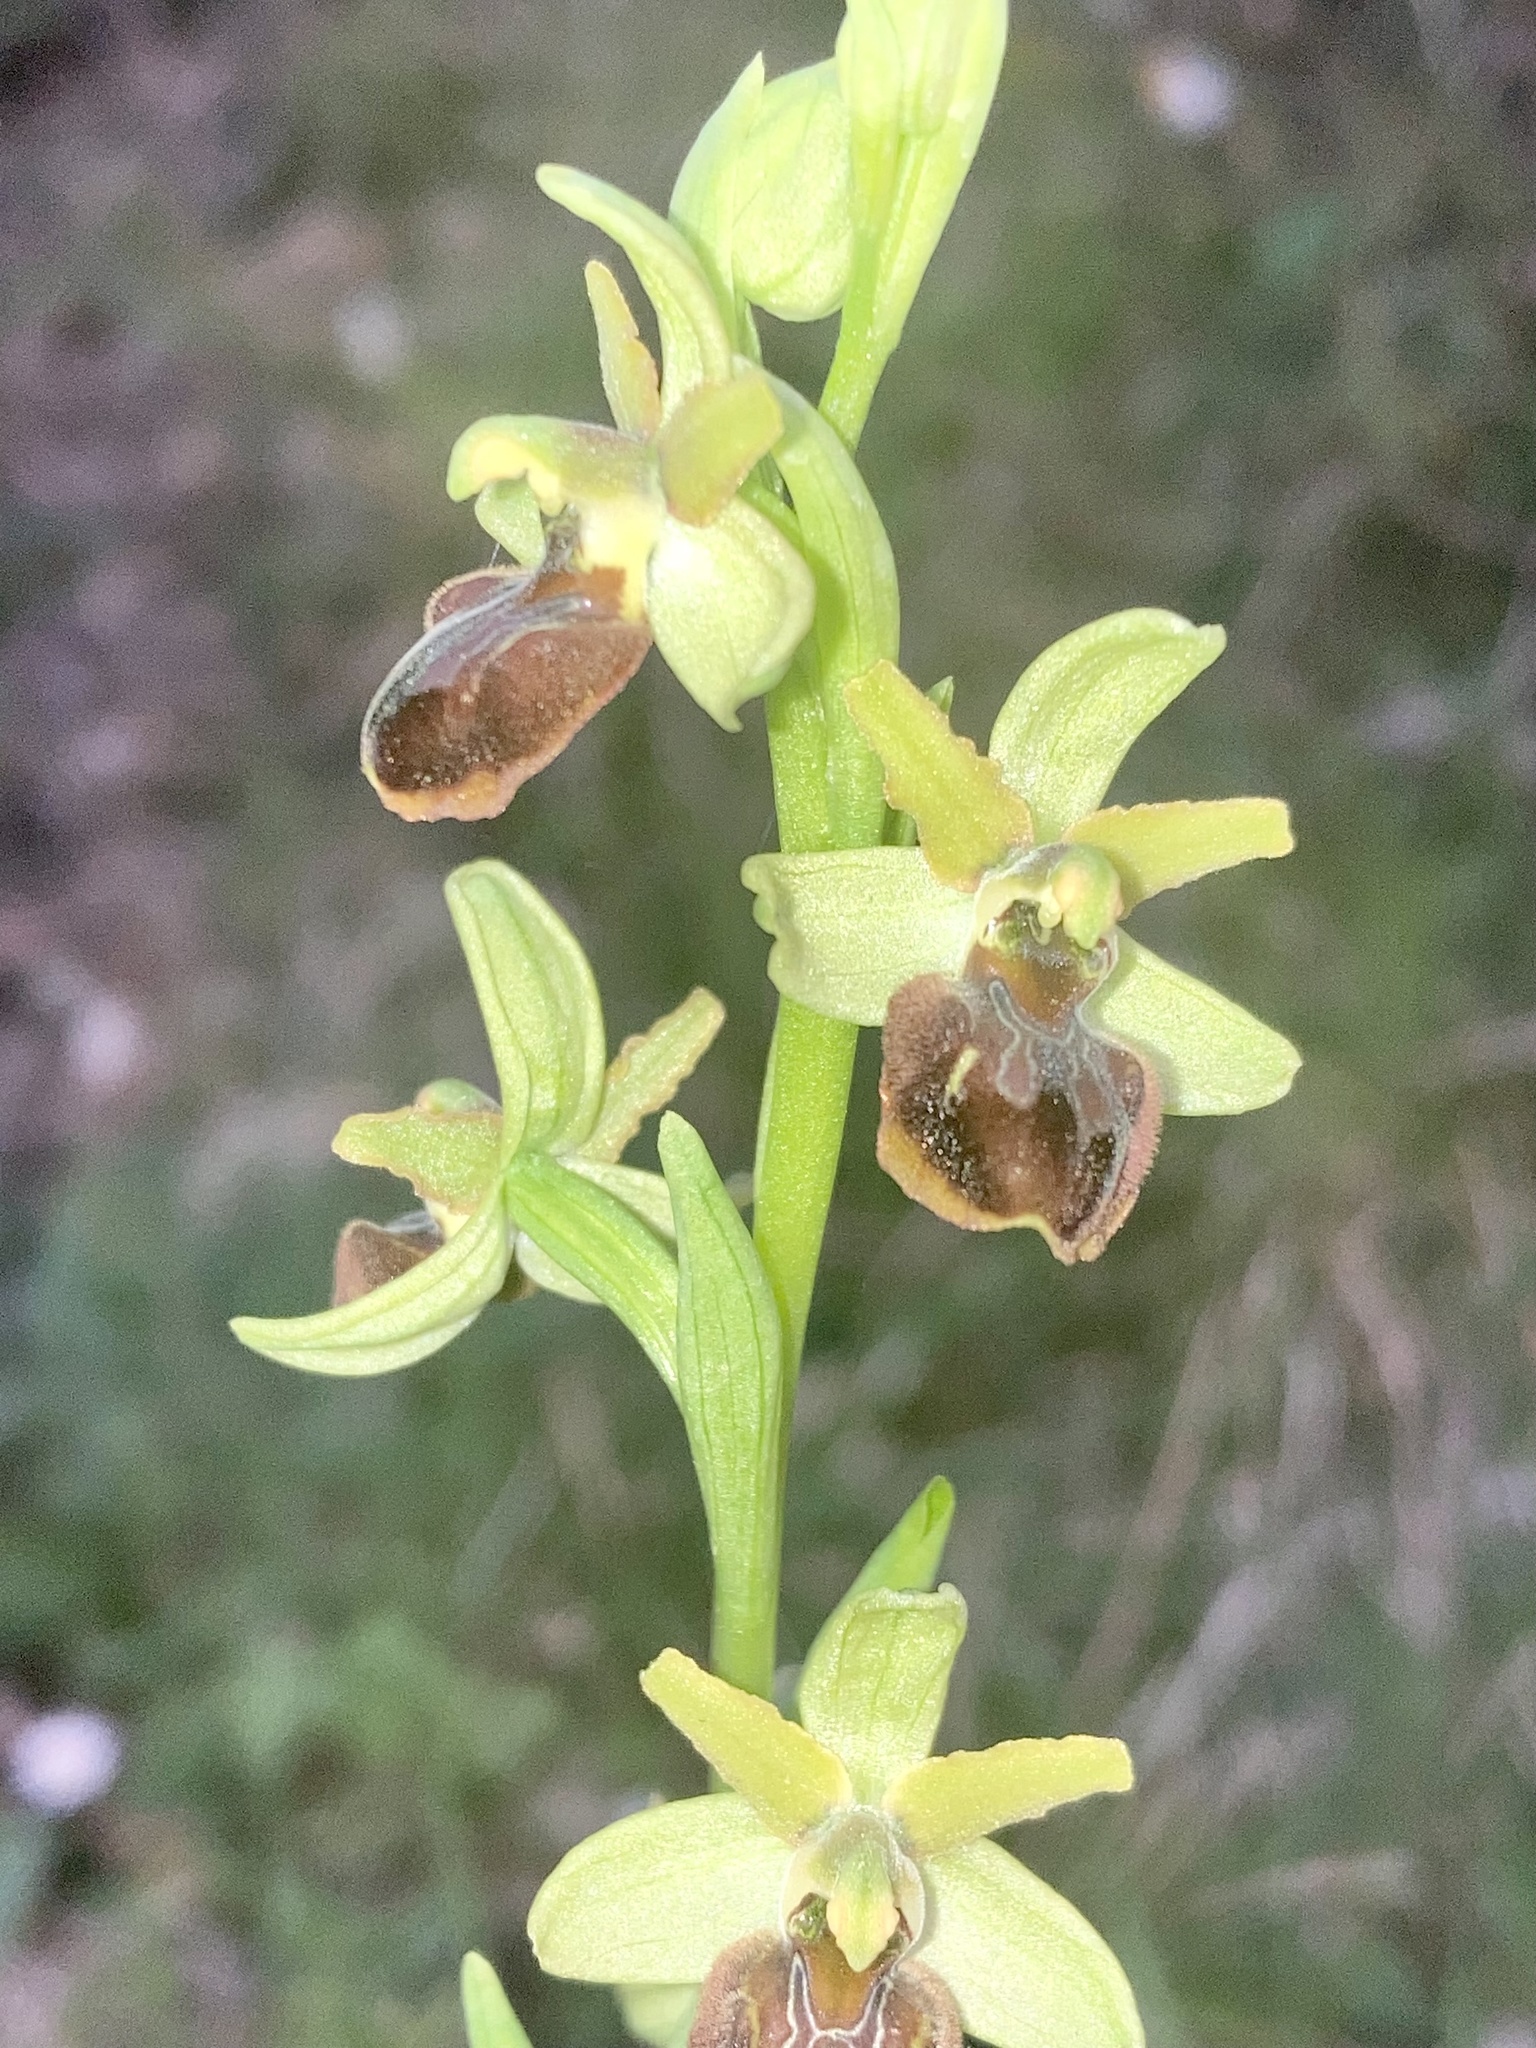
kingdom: Plantae
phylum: Tracheophyta
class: Liliopsida
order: Asparagales
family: Orchidaceae
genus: Ophrys
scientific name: Ophrys sphegodes
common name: Early spider-orchid
